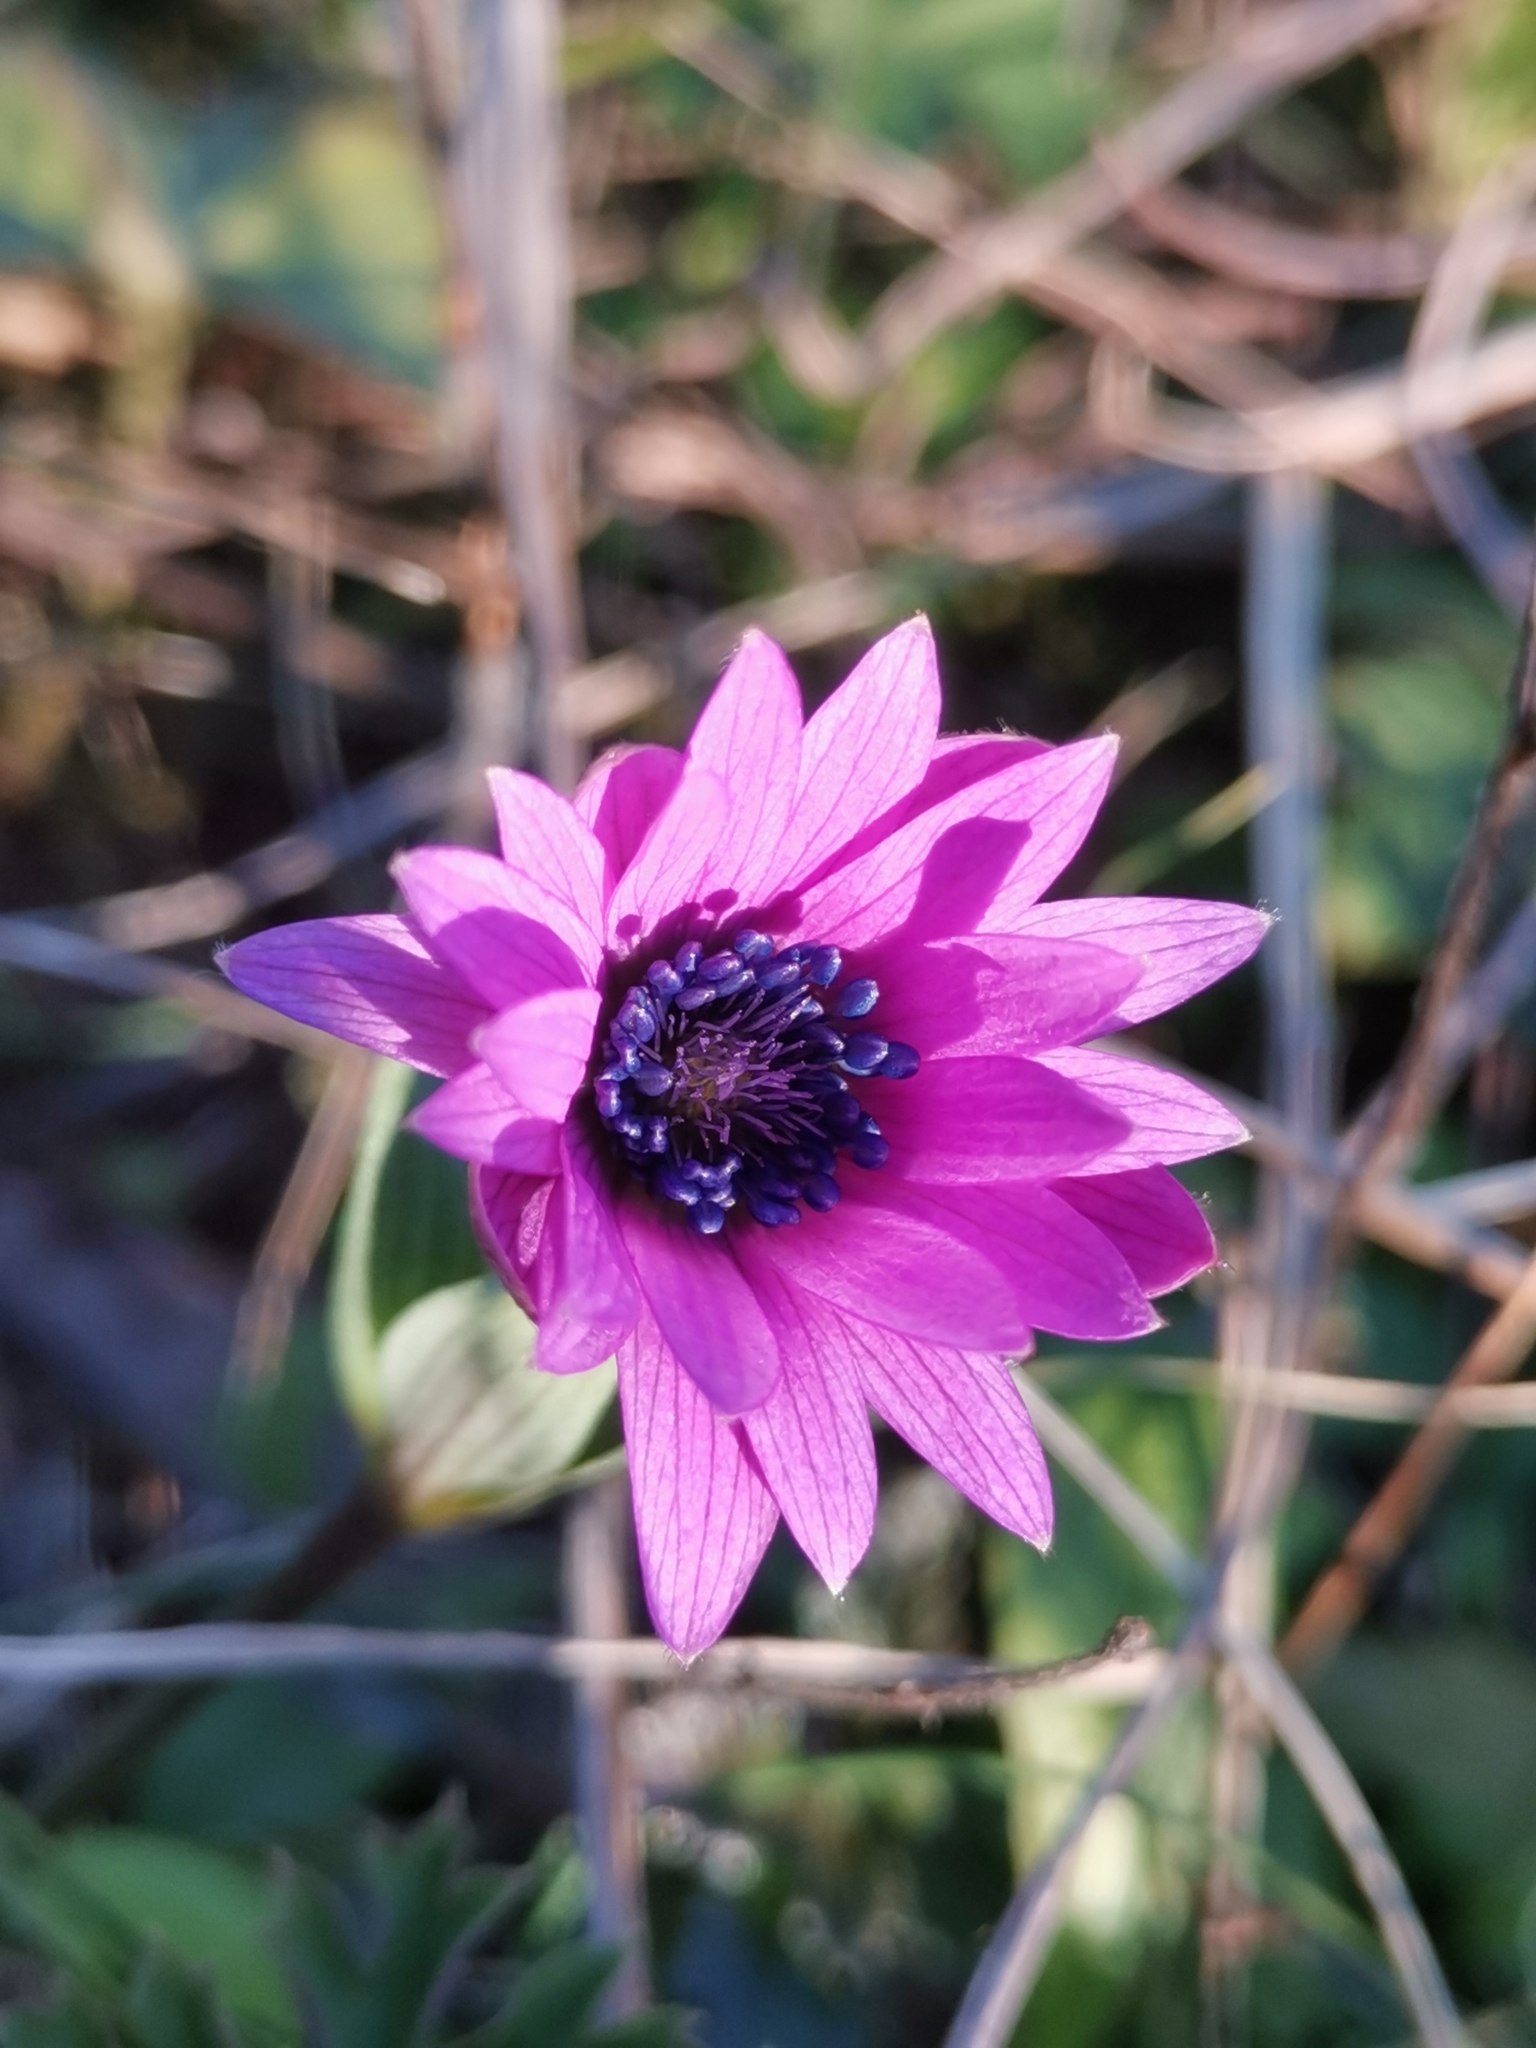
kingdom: Plantae
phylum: Tracheophyta
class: Magnoliopsida
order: Ranunculales
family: Ranunculaceae
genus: Anemone
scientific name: Anemone hortensis
